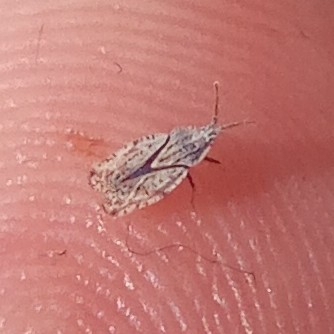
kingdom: Animalia
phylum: Arthropoda
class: Insecta
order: Hemiptera
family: Tingidae
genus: Tingis
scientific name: Tingis crispata
